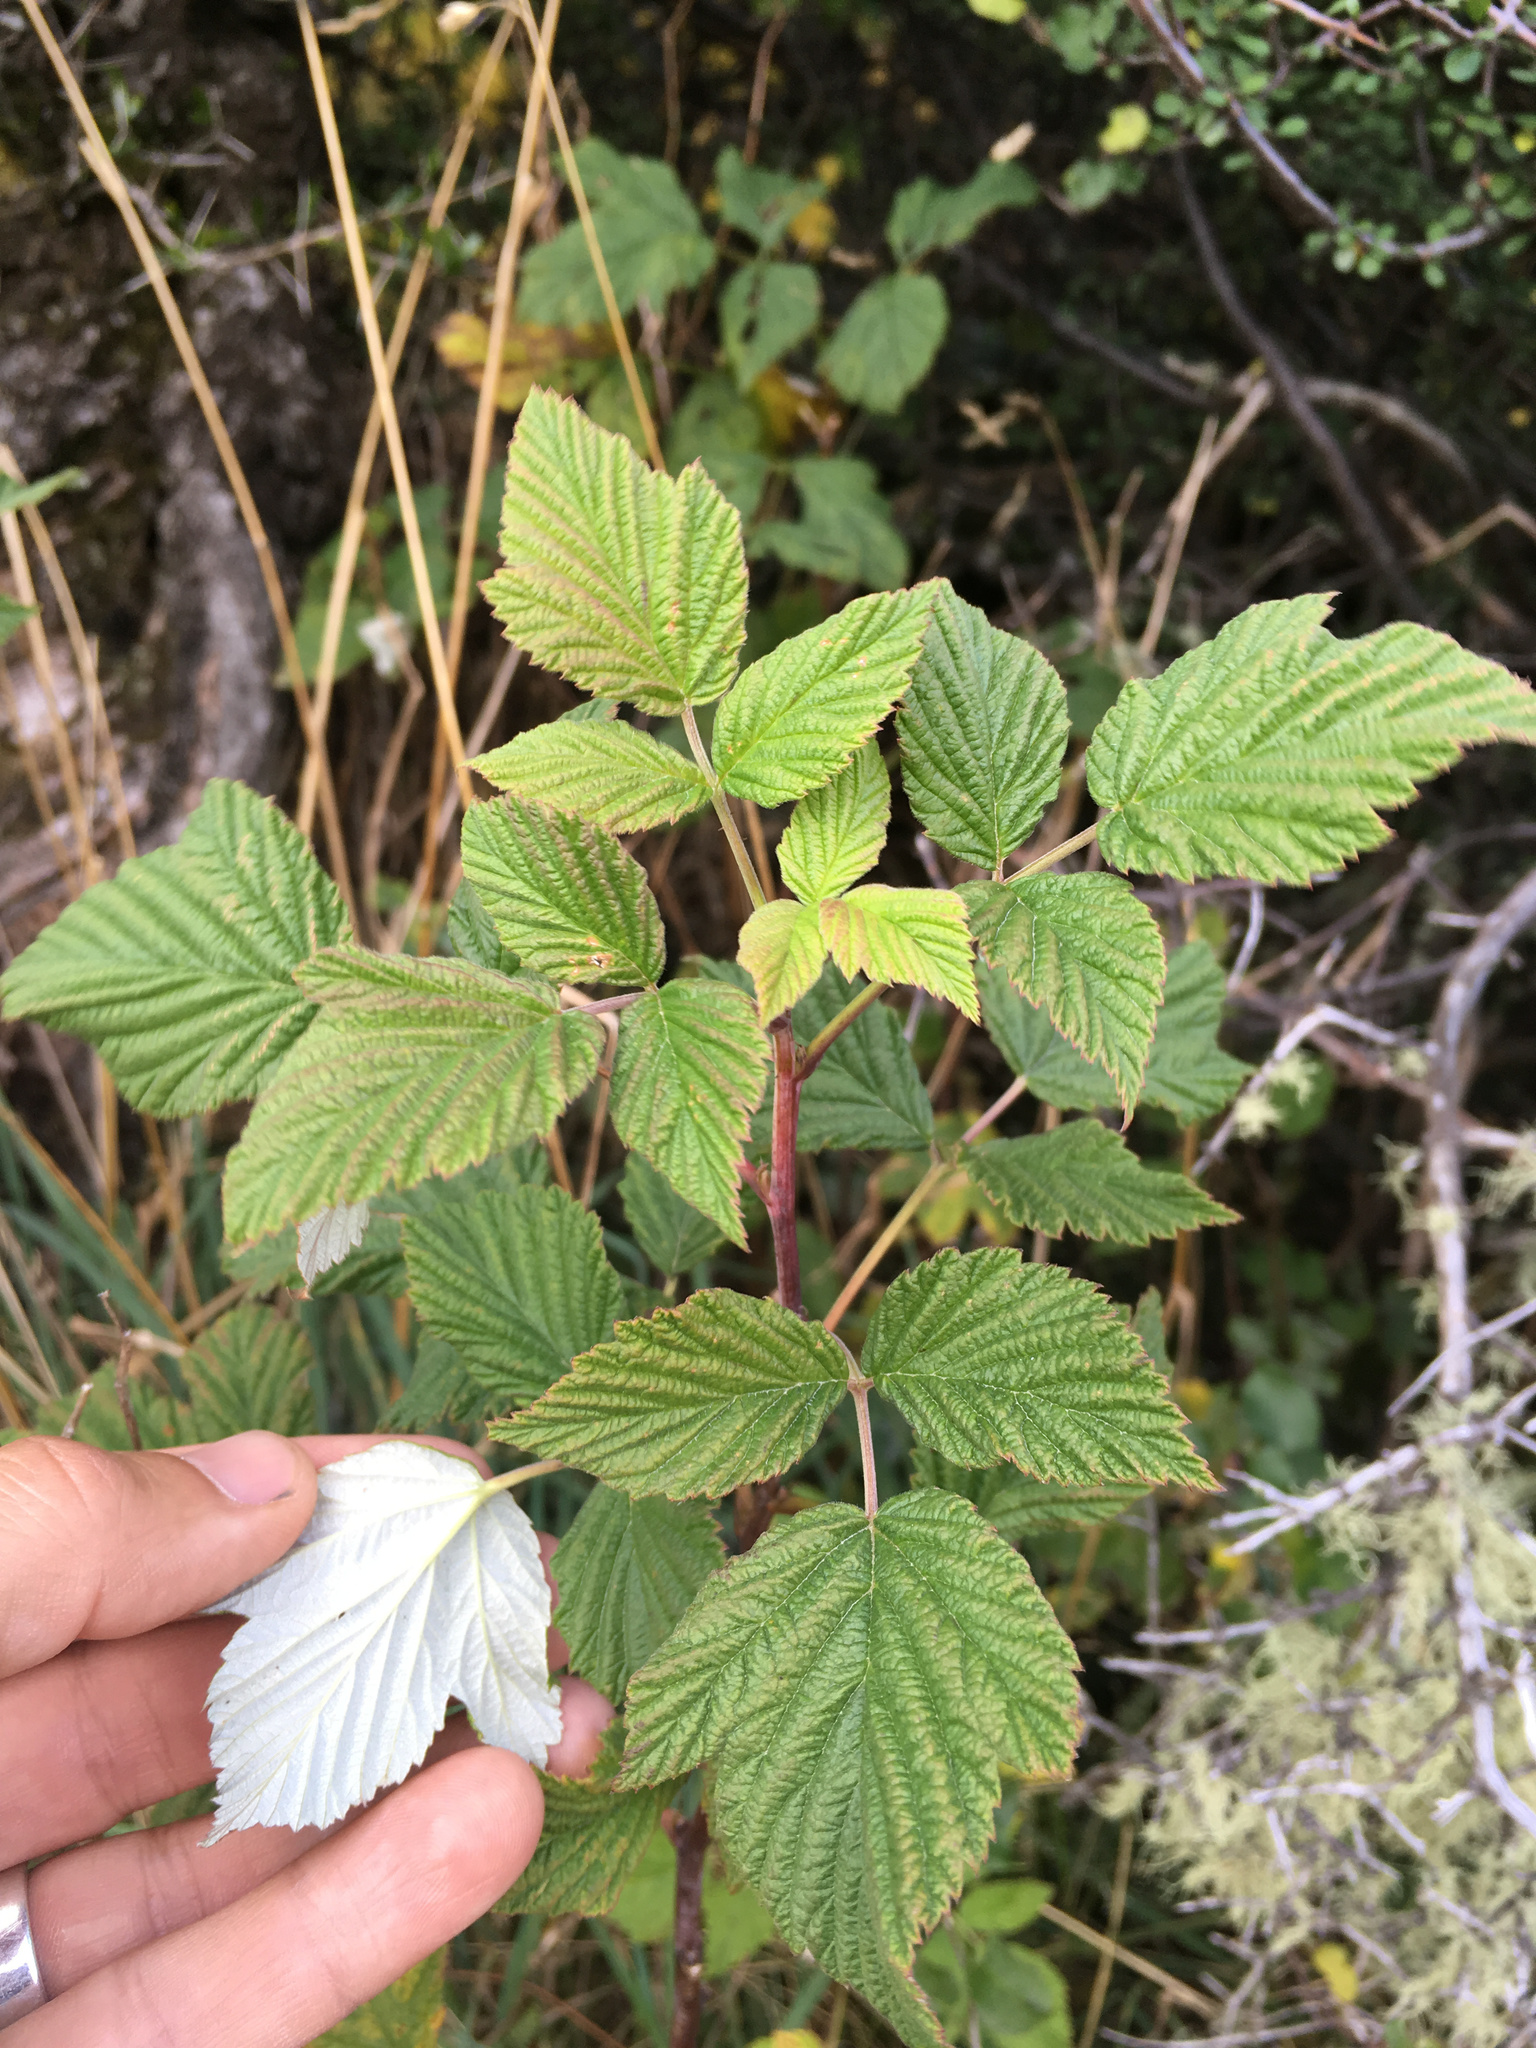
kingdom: Plantae
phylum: Tracheophyta
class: Magnoliopsida
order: Rosales
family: Rosaceae
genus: Rubus
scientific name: Rubus idaeus
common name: Raspberry
